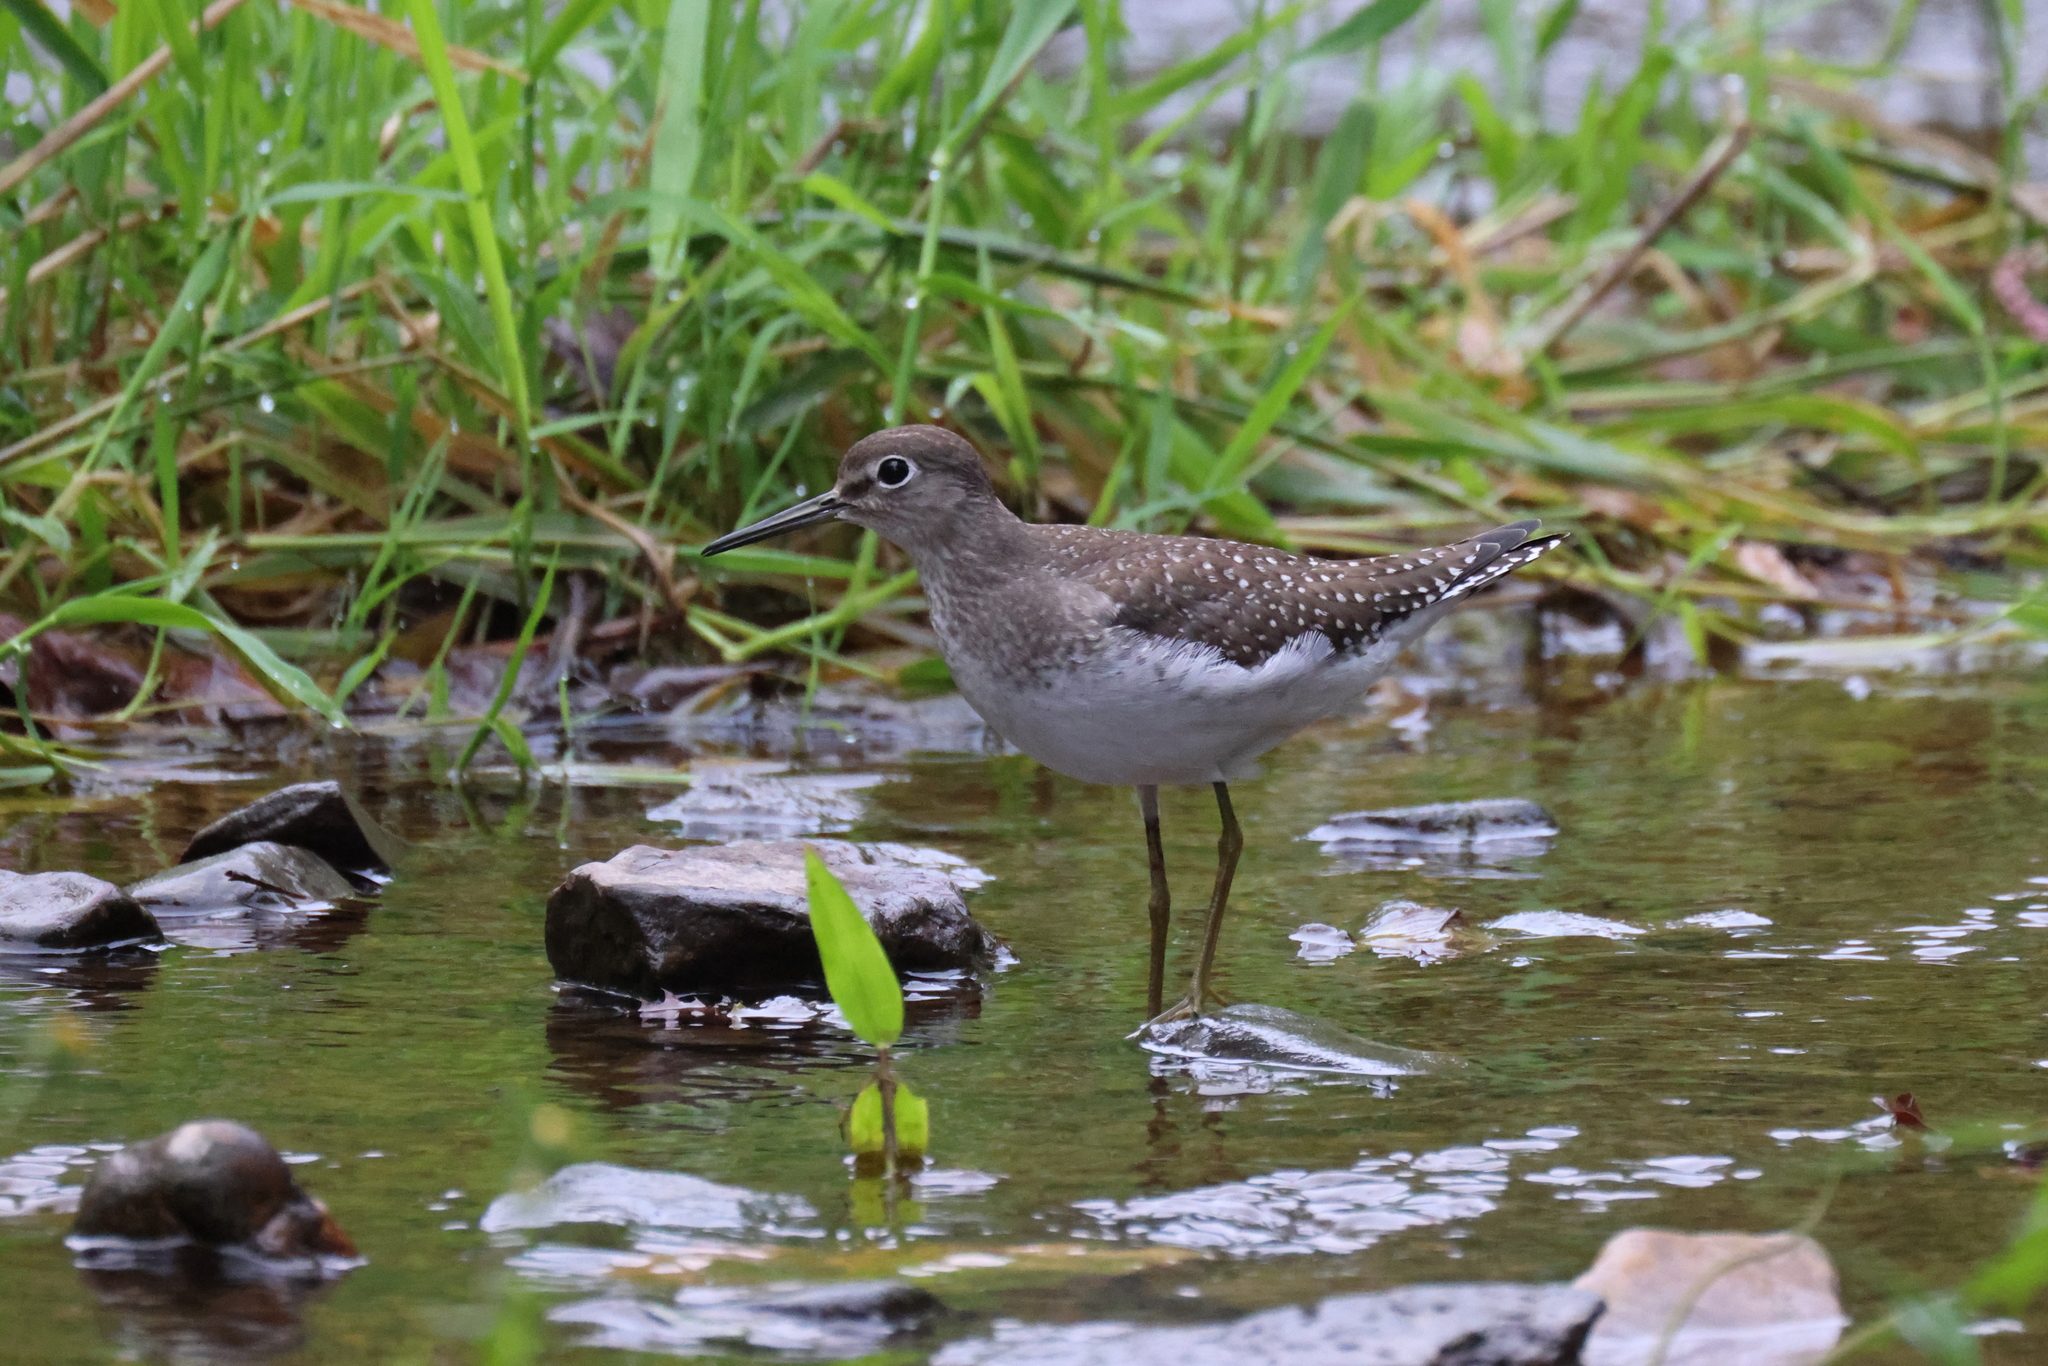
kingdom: Animalia
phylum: Chordata
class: Aves
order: Charadriiformes
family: Scolopacidae
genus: Tringa
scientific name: Tringa solitaria
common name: Solitary sandpiper
